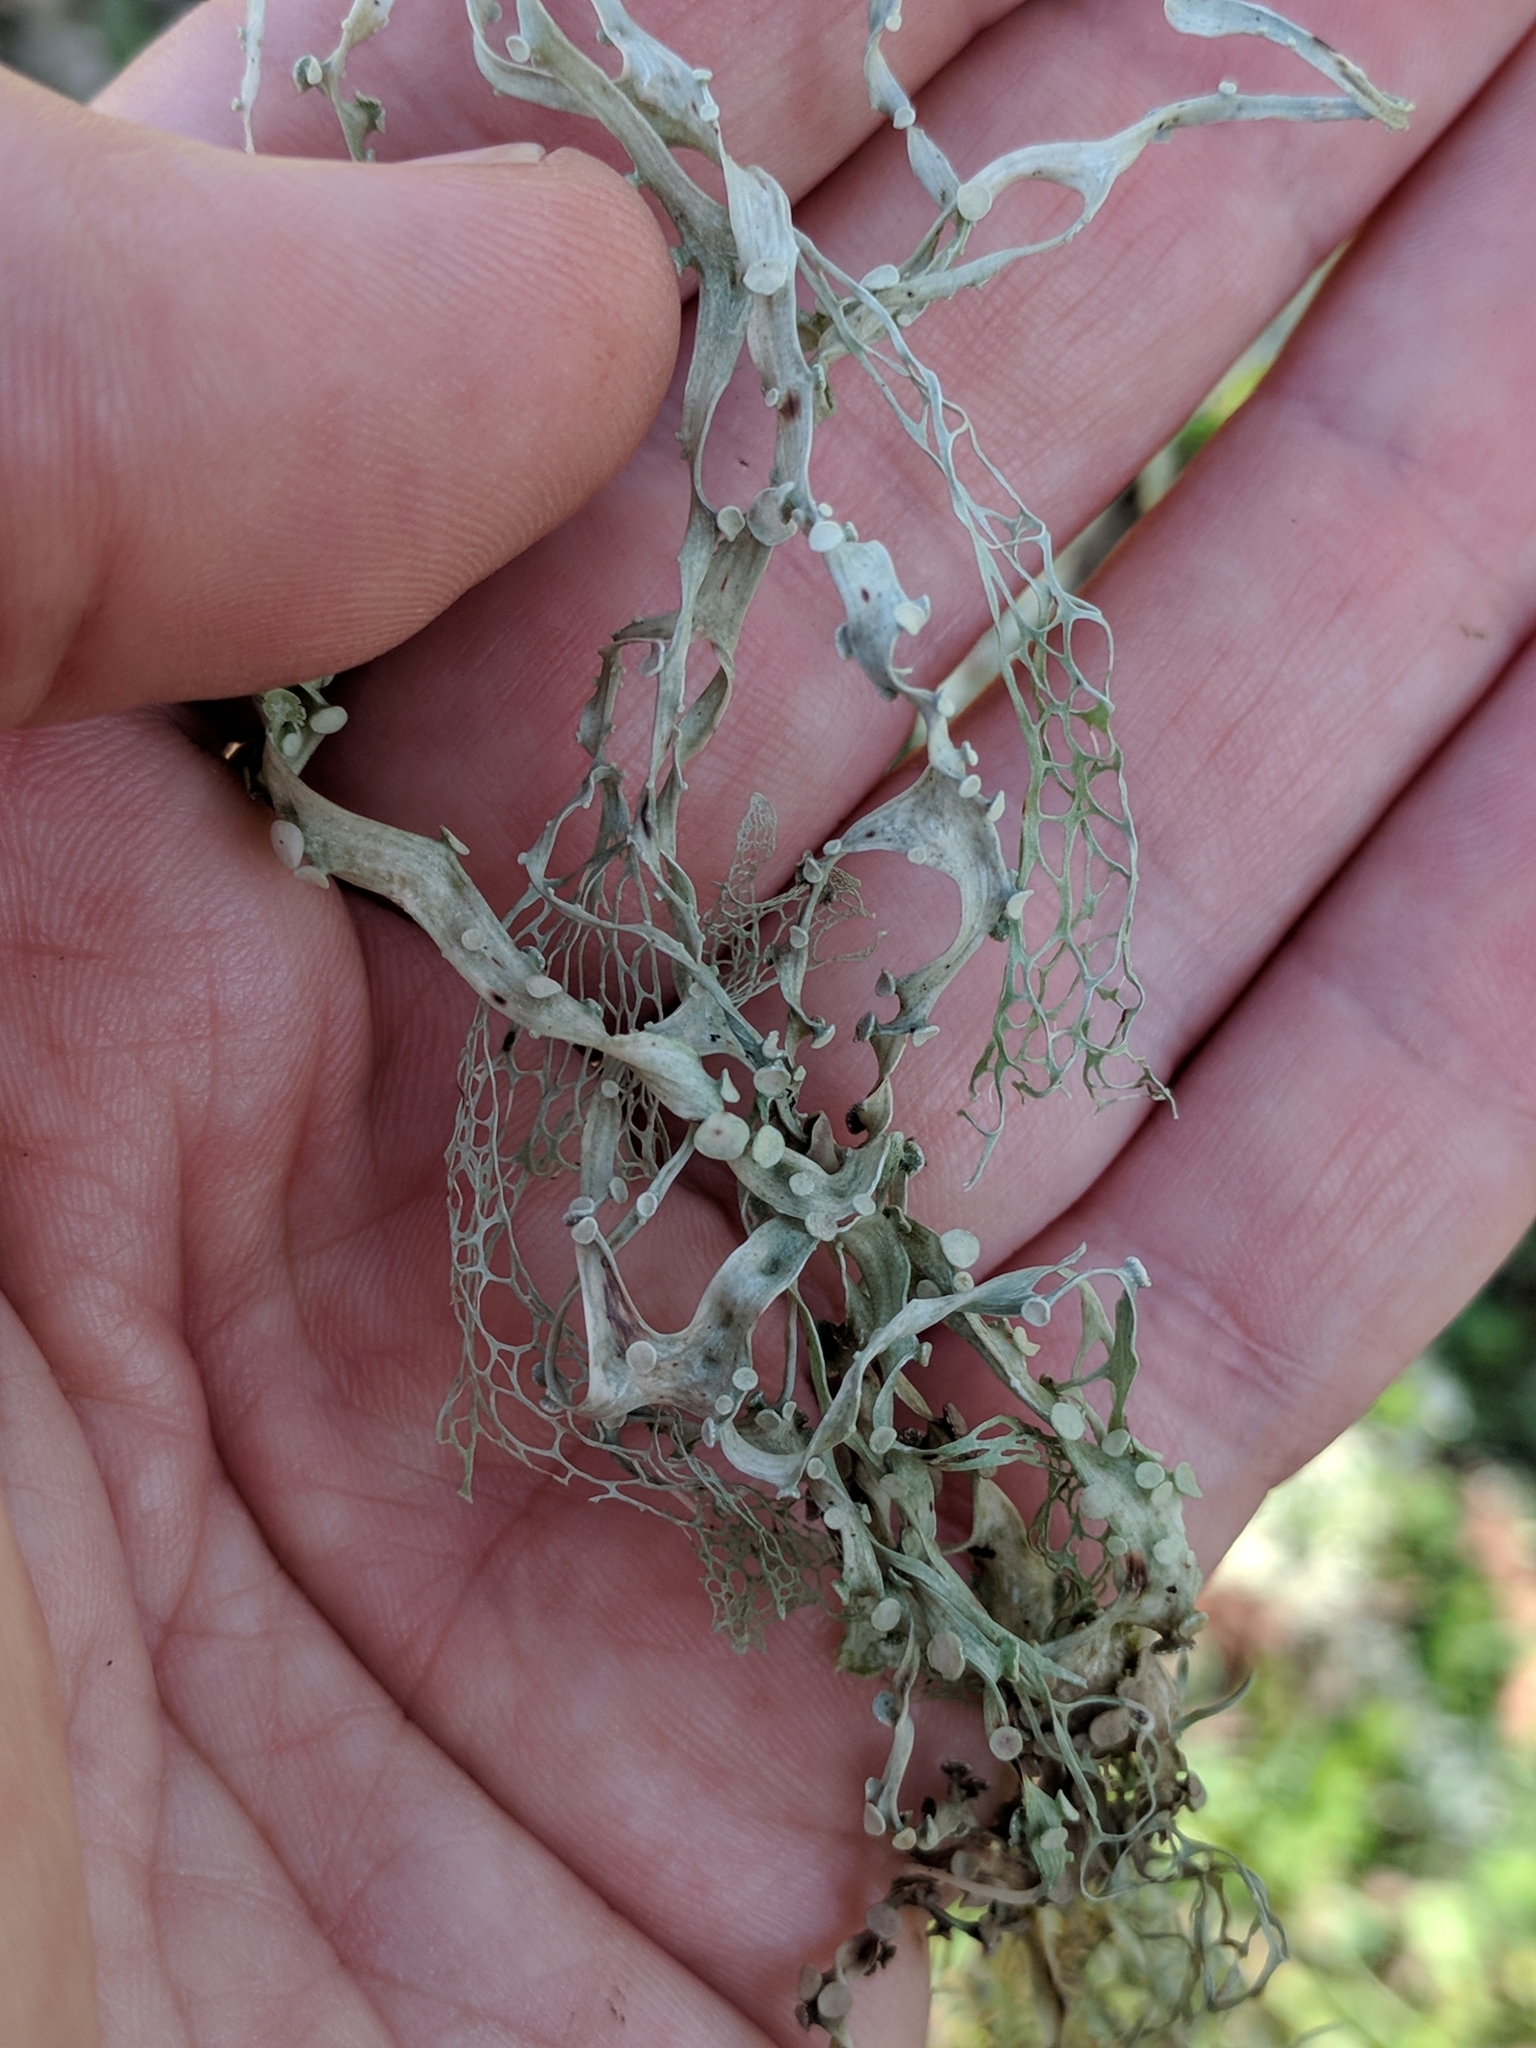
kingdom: Fungi
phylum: Ascomycota
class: Lecanoromycetes
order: Lecanorales
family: Ramalinaceae
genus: Ramalina
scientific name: Ramalina menziesii
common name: Lace lichen
